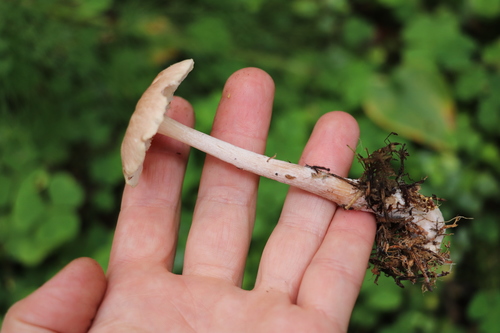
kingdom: Fungi
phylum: Basidiomycota
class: Agaricomycetes
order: Agaricales
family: Omphalotaceae
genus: Rhodocollybia
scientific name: Rhodocollybia
